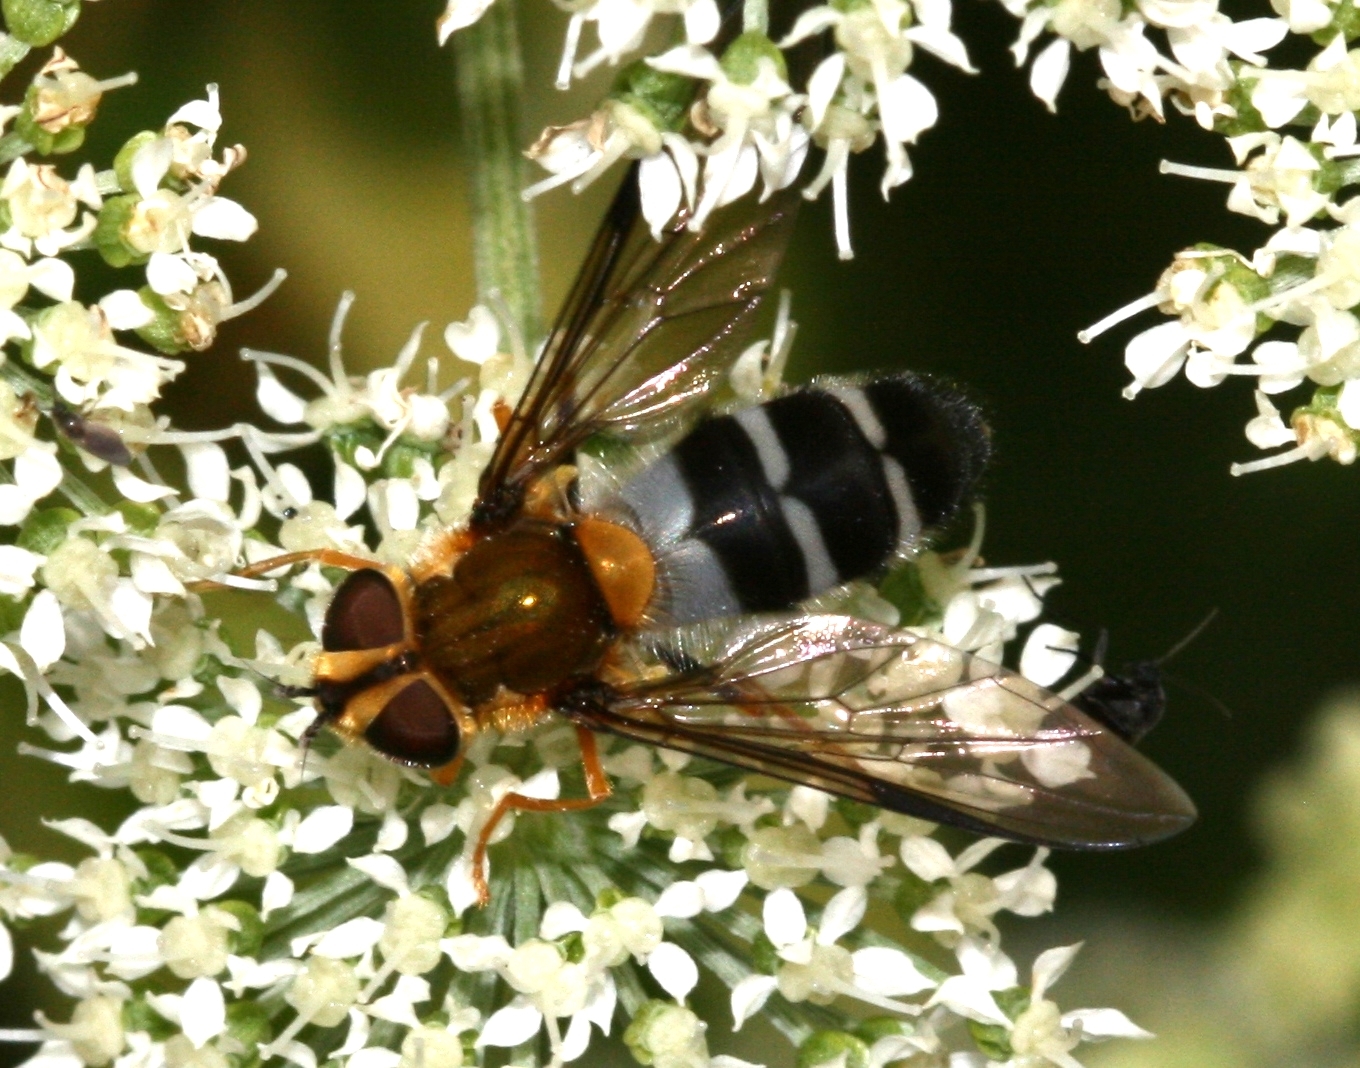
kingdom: Animalia
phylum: Arthropoda
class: Insecta
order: Diptera
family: Syrphidae
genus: Leucozona
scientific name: Leucozona glaucia
